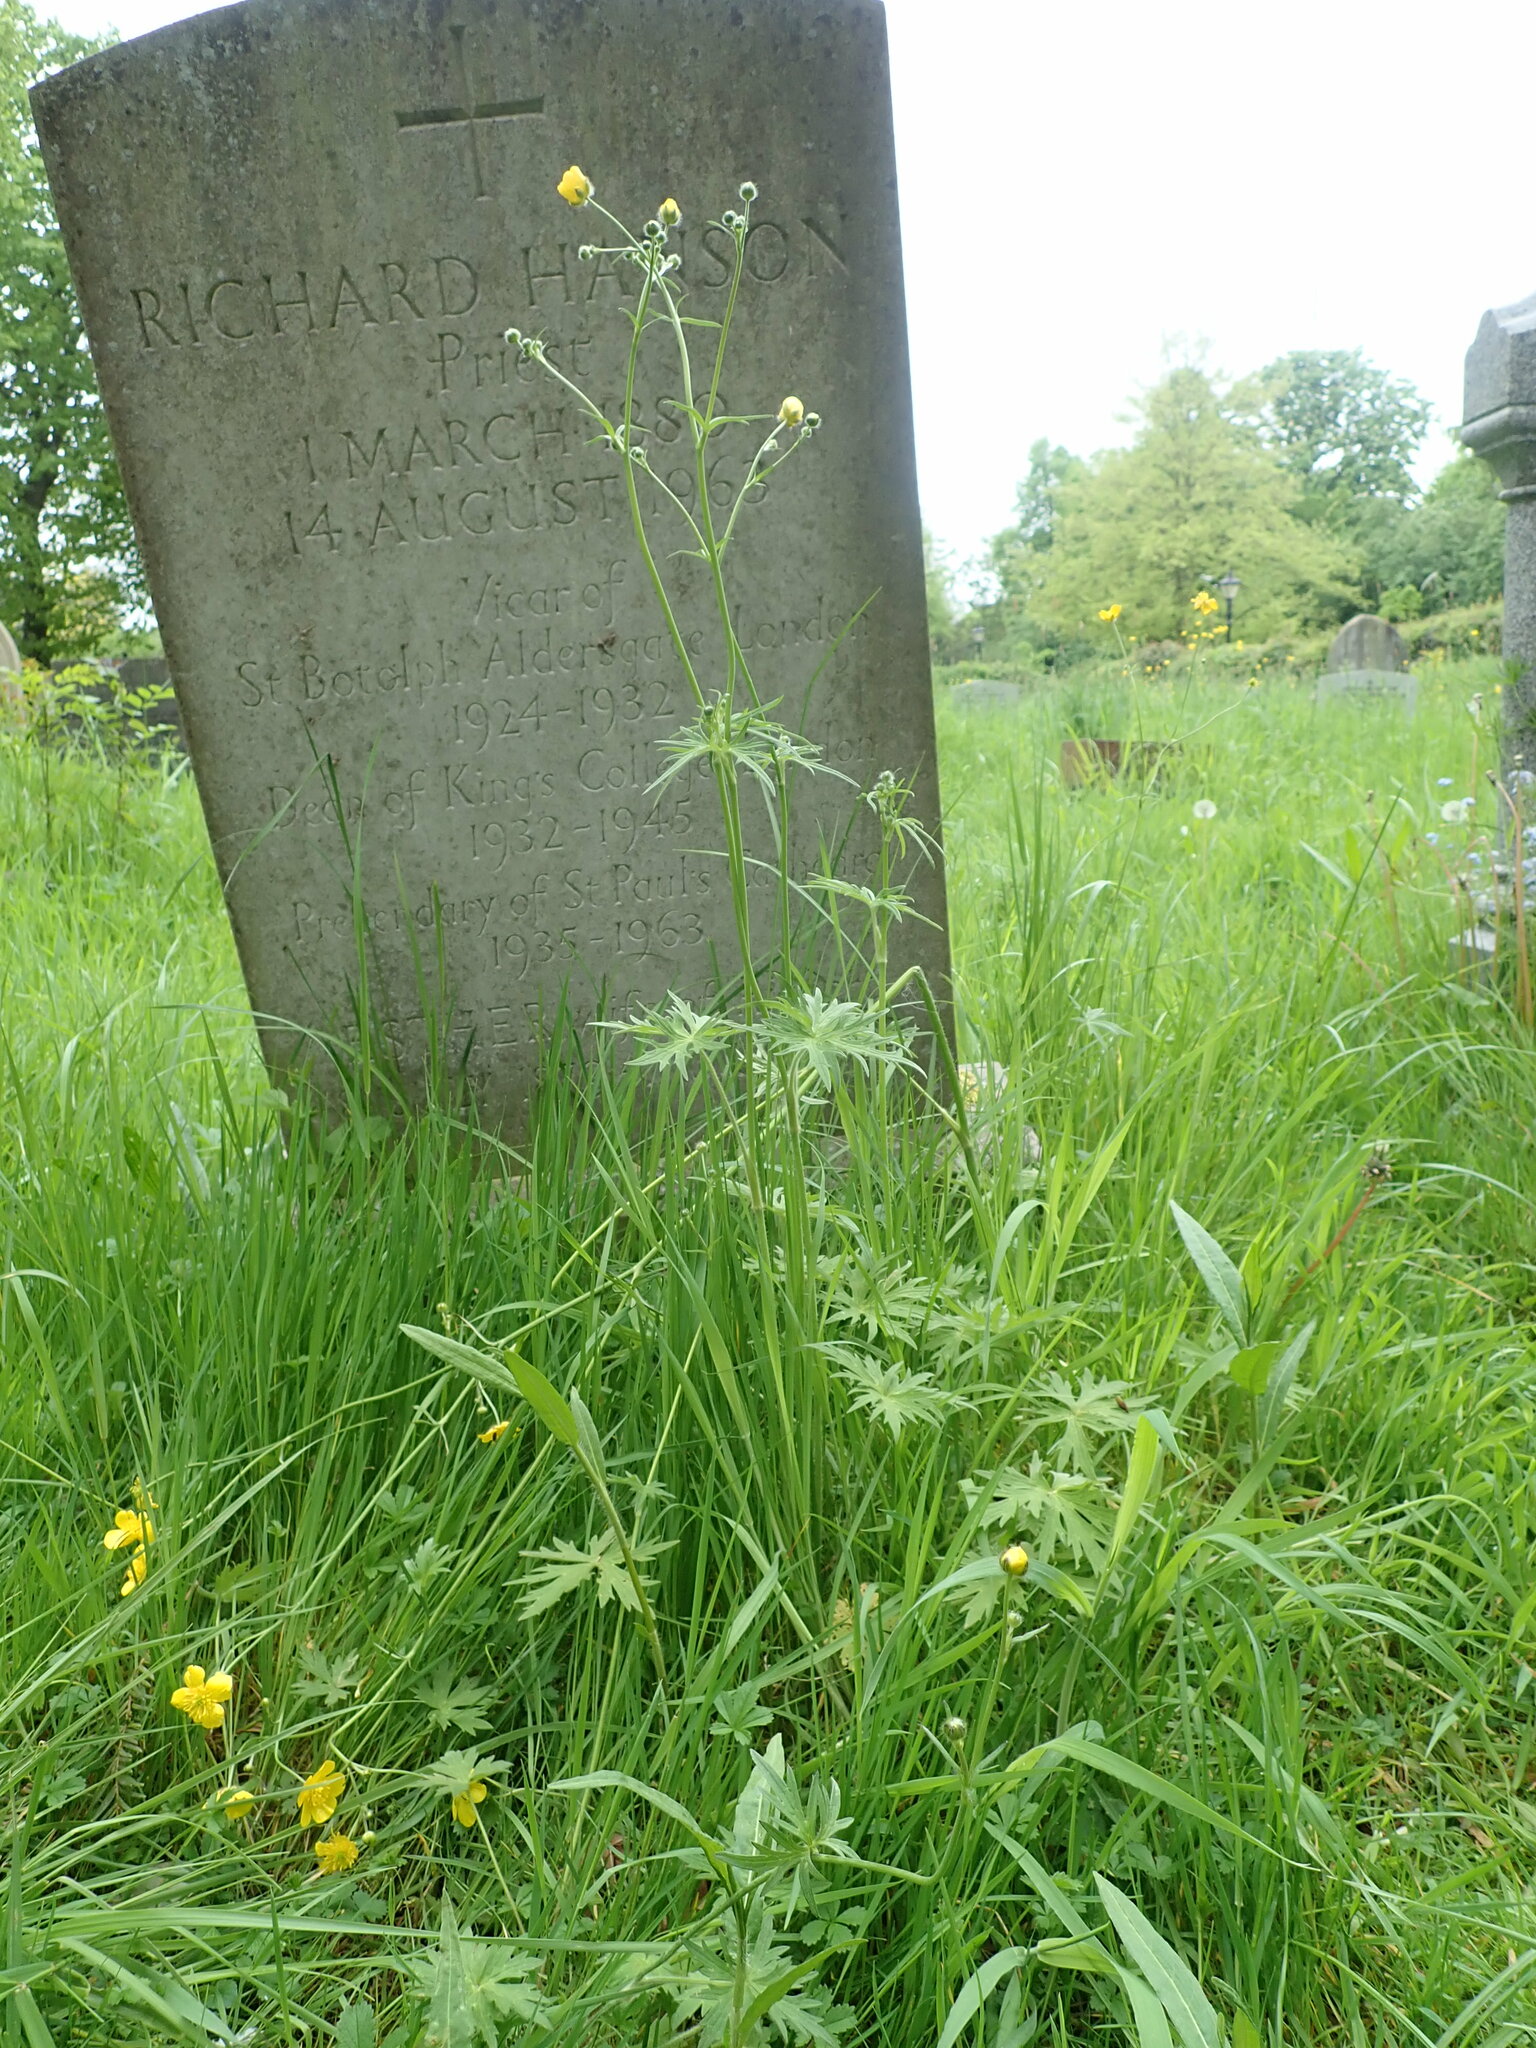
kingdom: Plantae
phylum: Tracheophyta
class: Magnoliopsida
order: Ranunculales
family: Ranunculaceae
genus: Ranunculus
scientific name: Ranunculus acris
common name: Meadow buttercup
